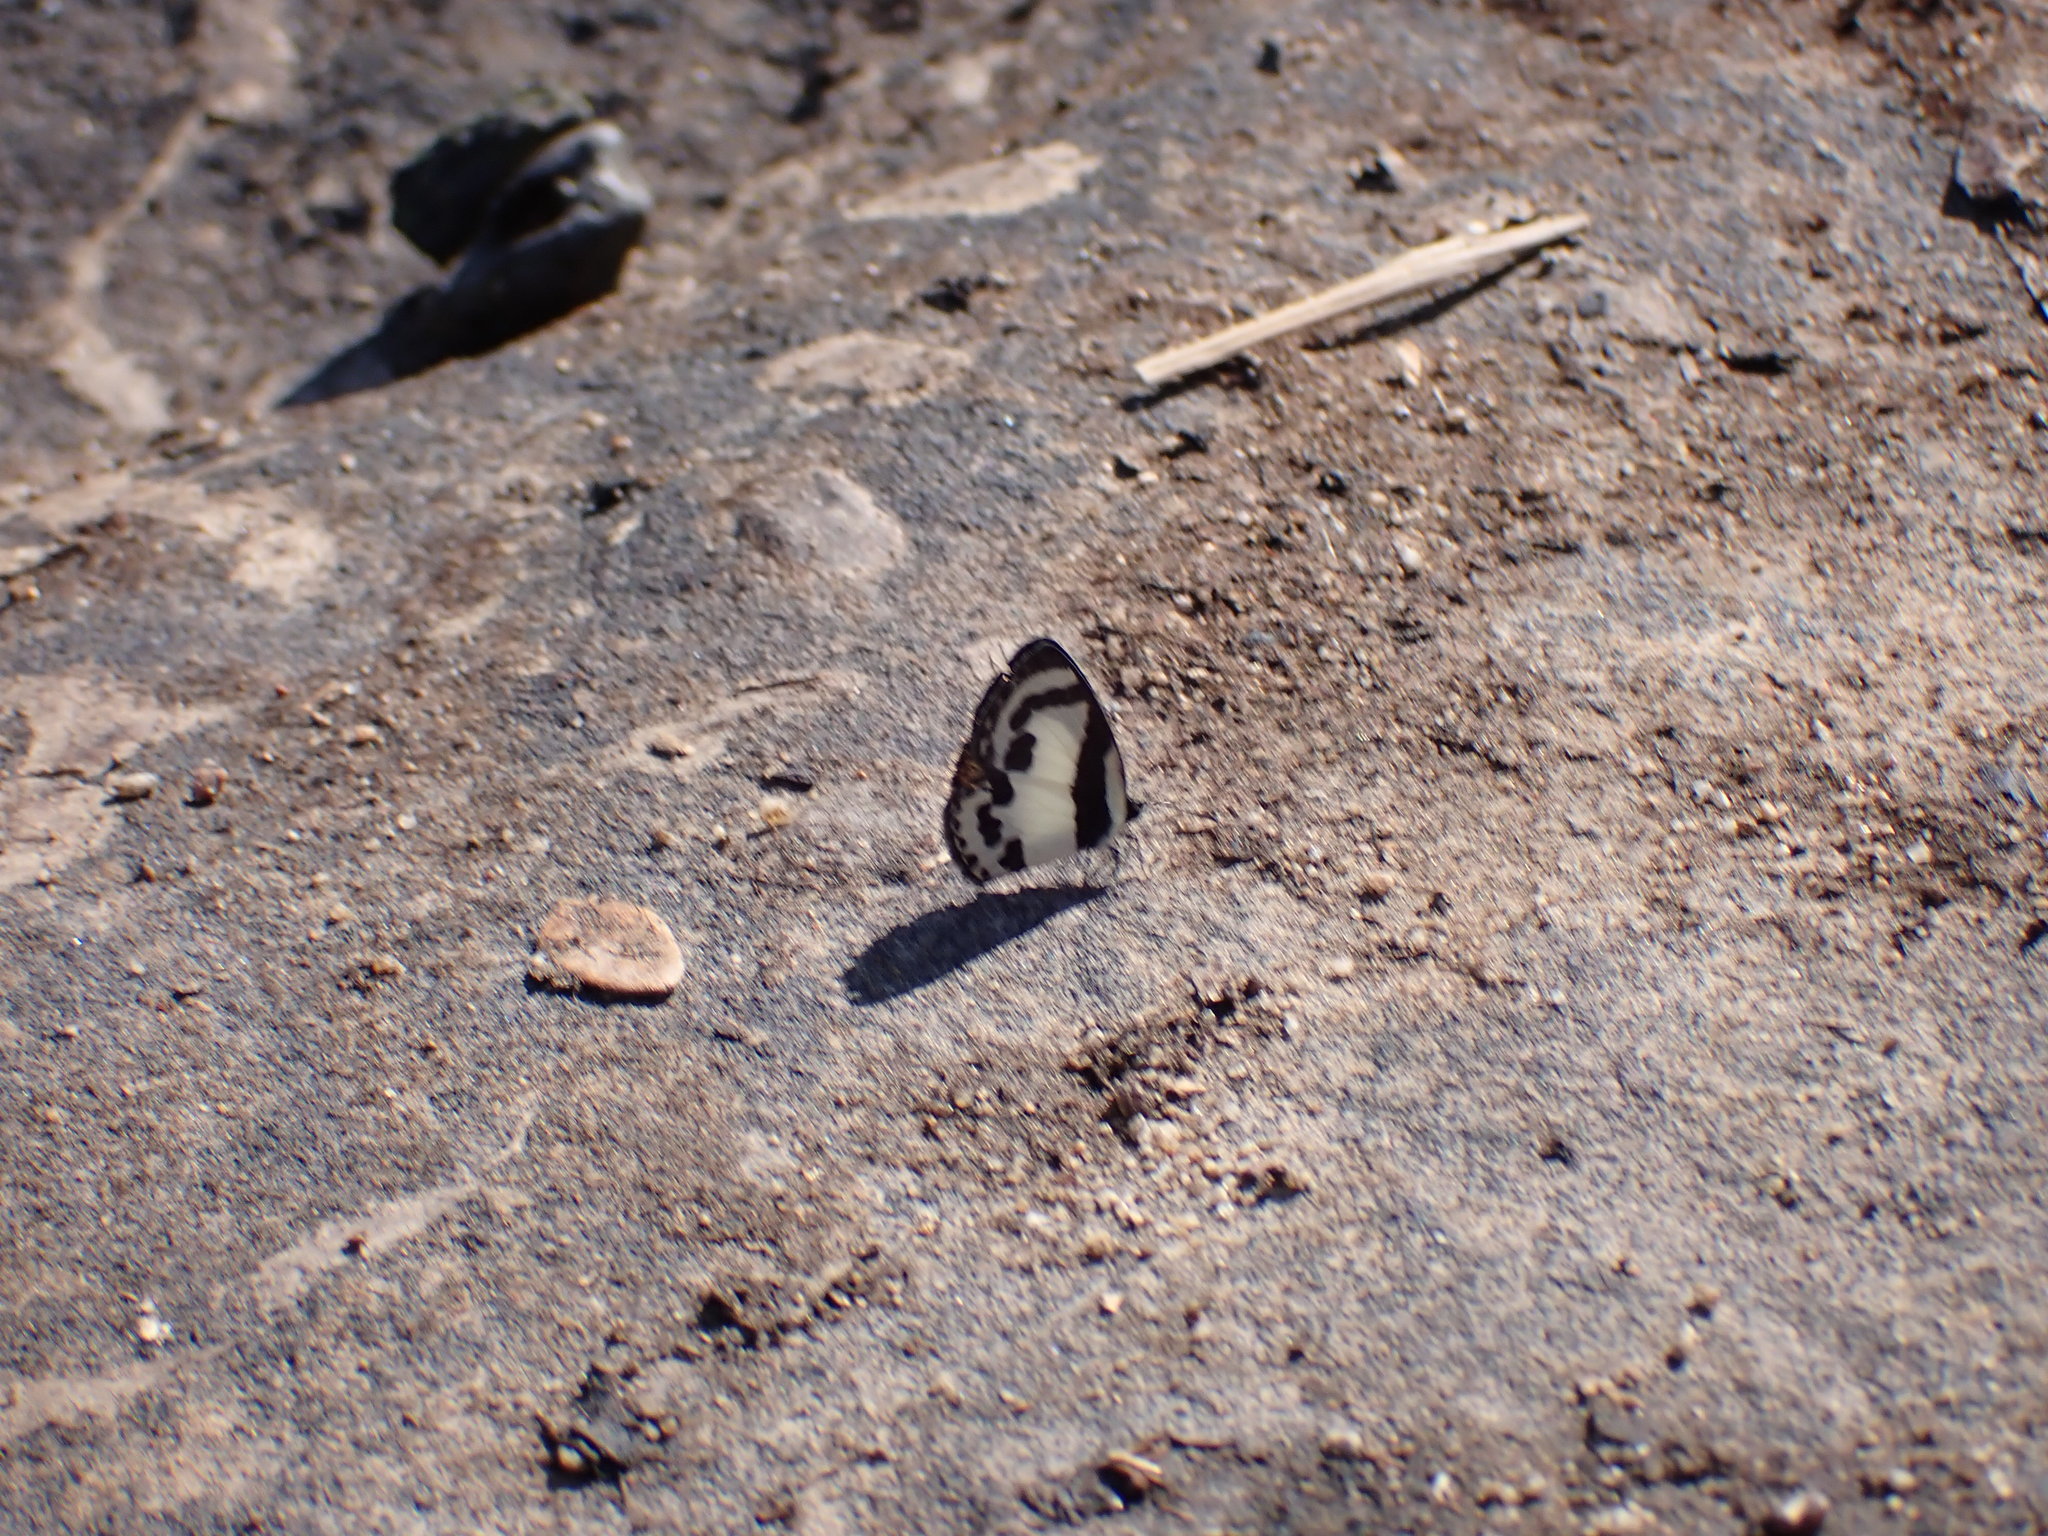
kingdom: Animalia
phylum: Arthropoda
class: Insecta
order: Lepidoptera
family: Lycaenidae
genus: Caleta
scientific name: Caleta roxus
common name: Straight pierrot
